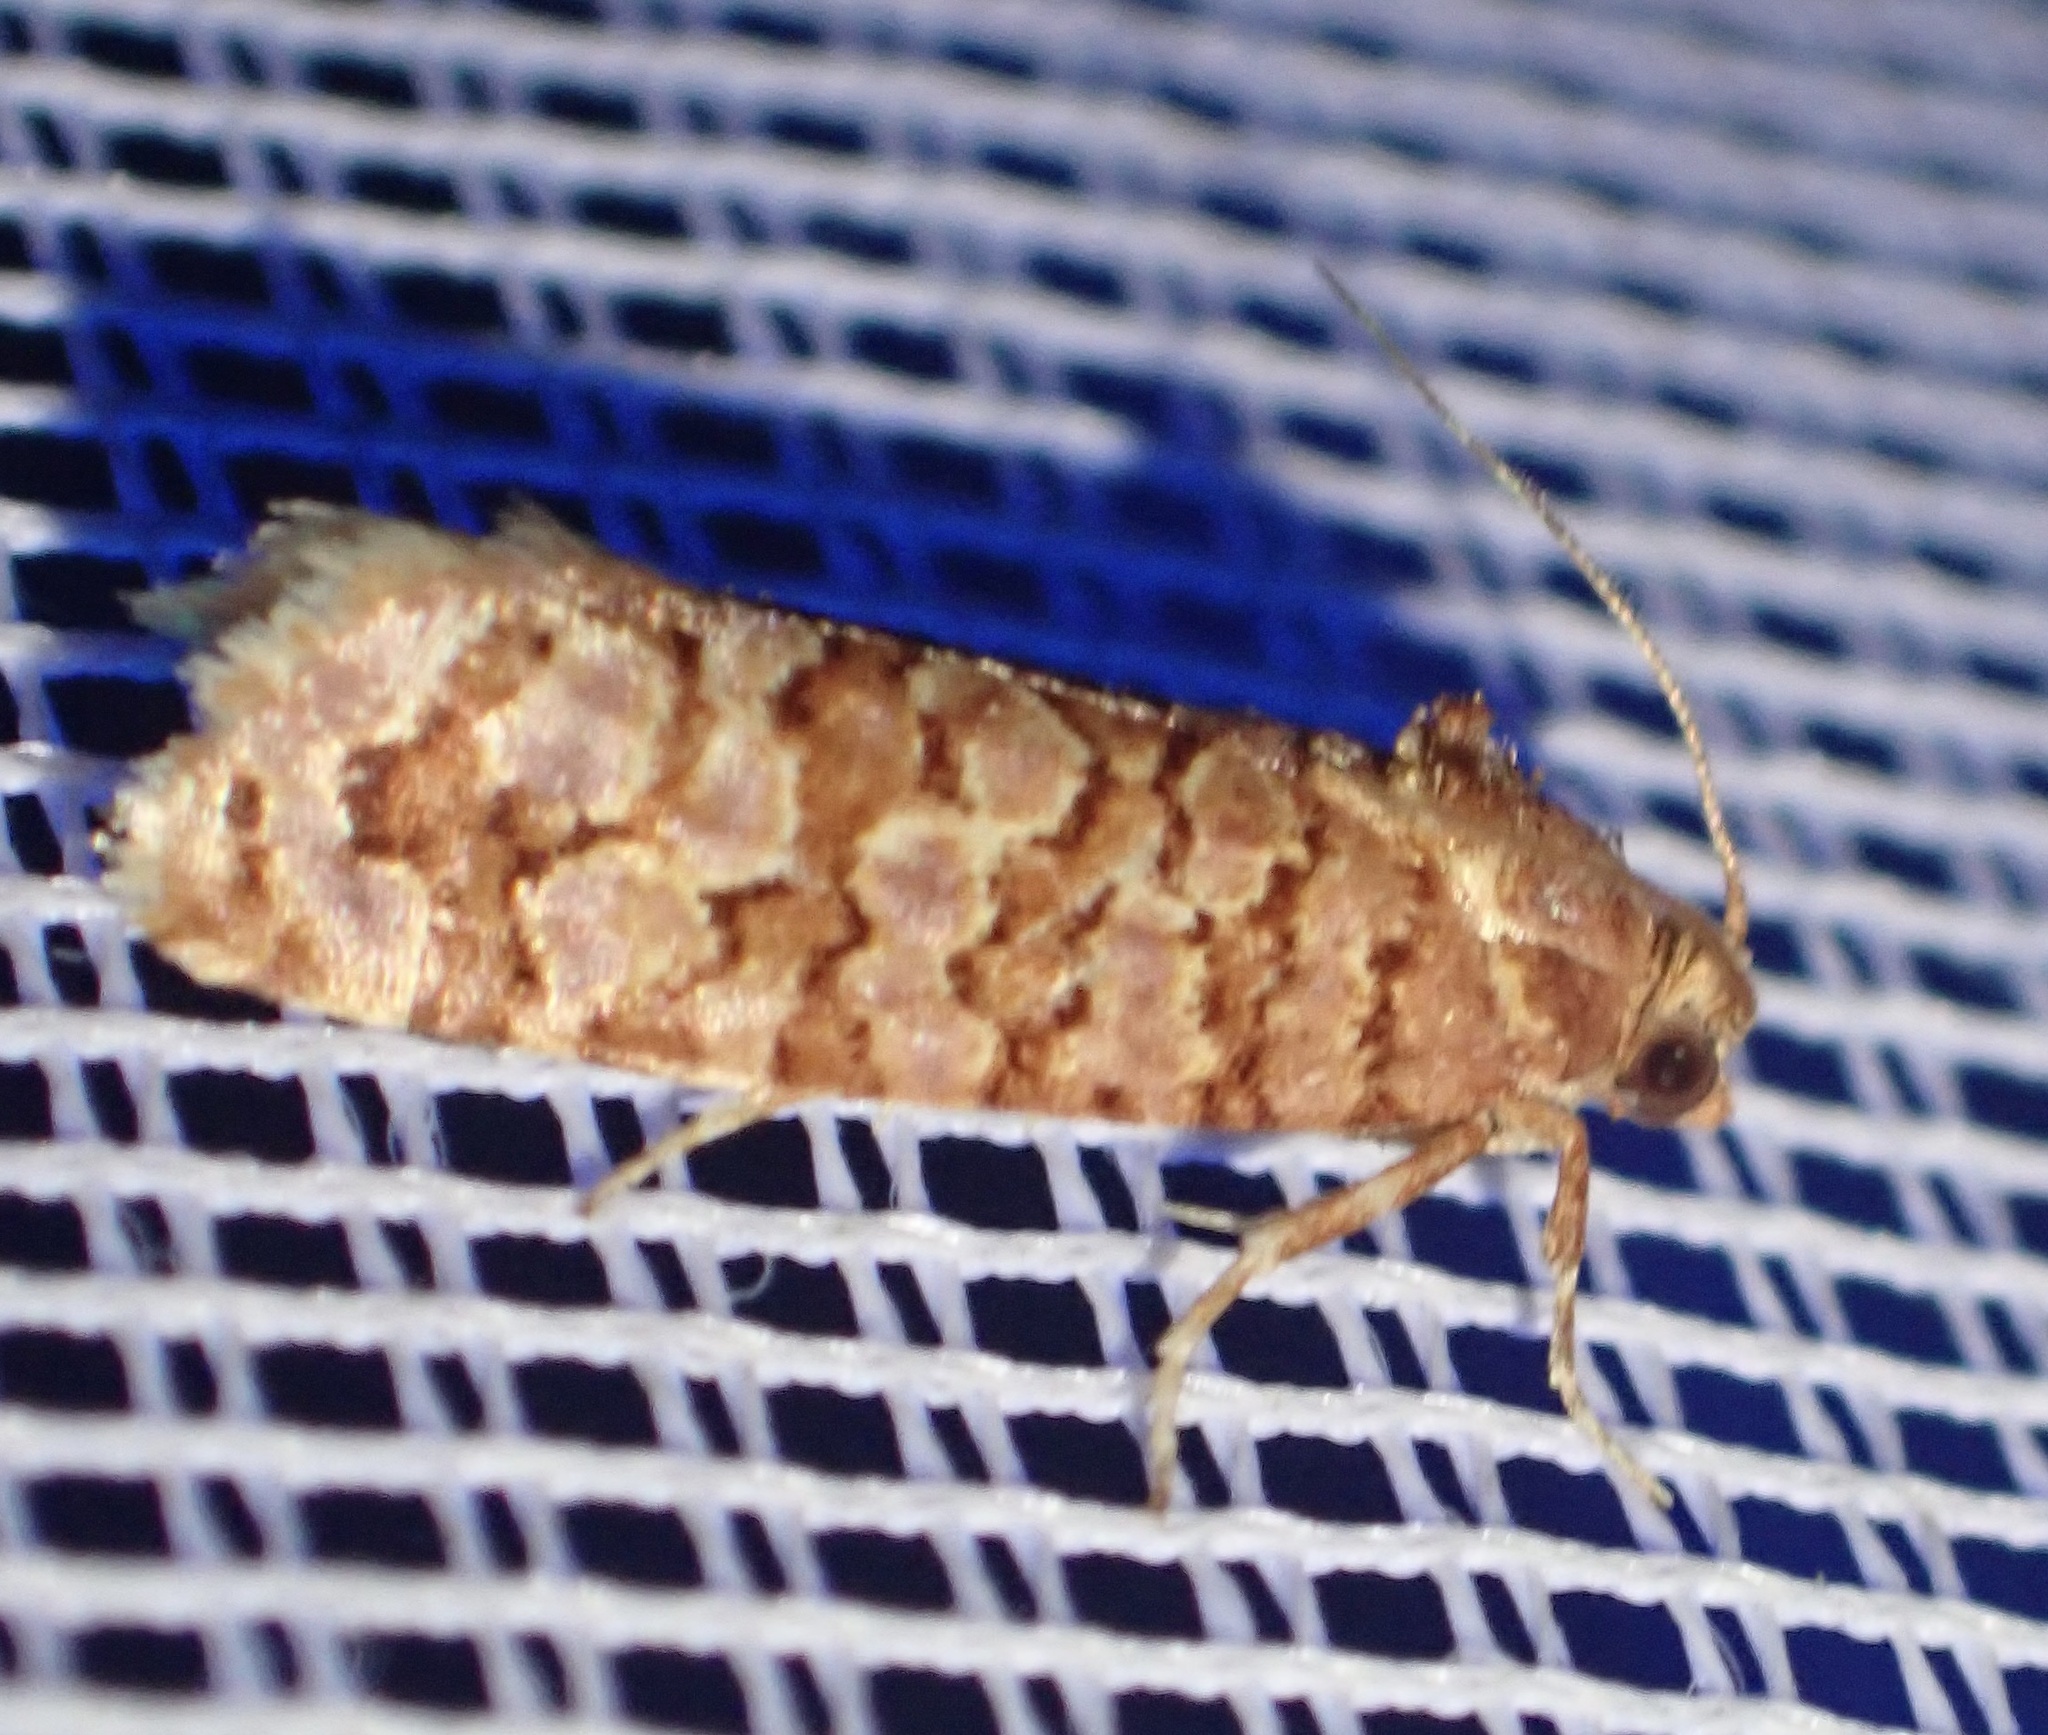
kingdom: Animalia
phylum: Arthropoda
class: Insecta
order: Lepidoptera
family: Tortricidae
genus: Lozotaeniodes
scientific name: Lozotaeniodes formosana
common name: Orange pine twist
